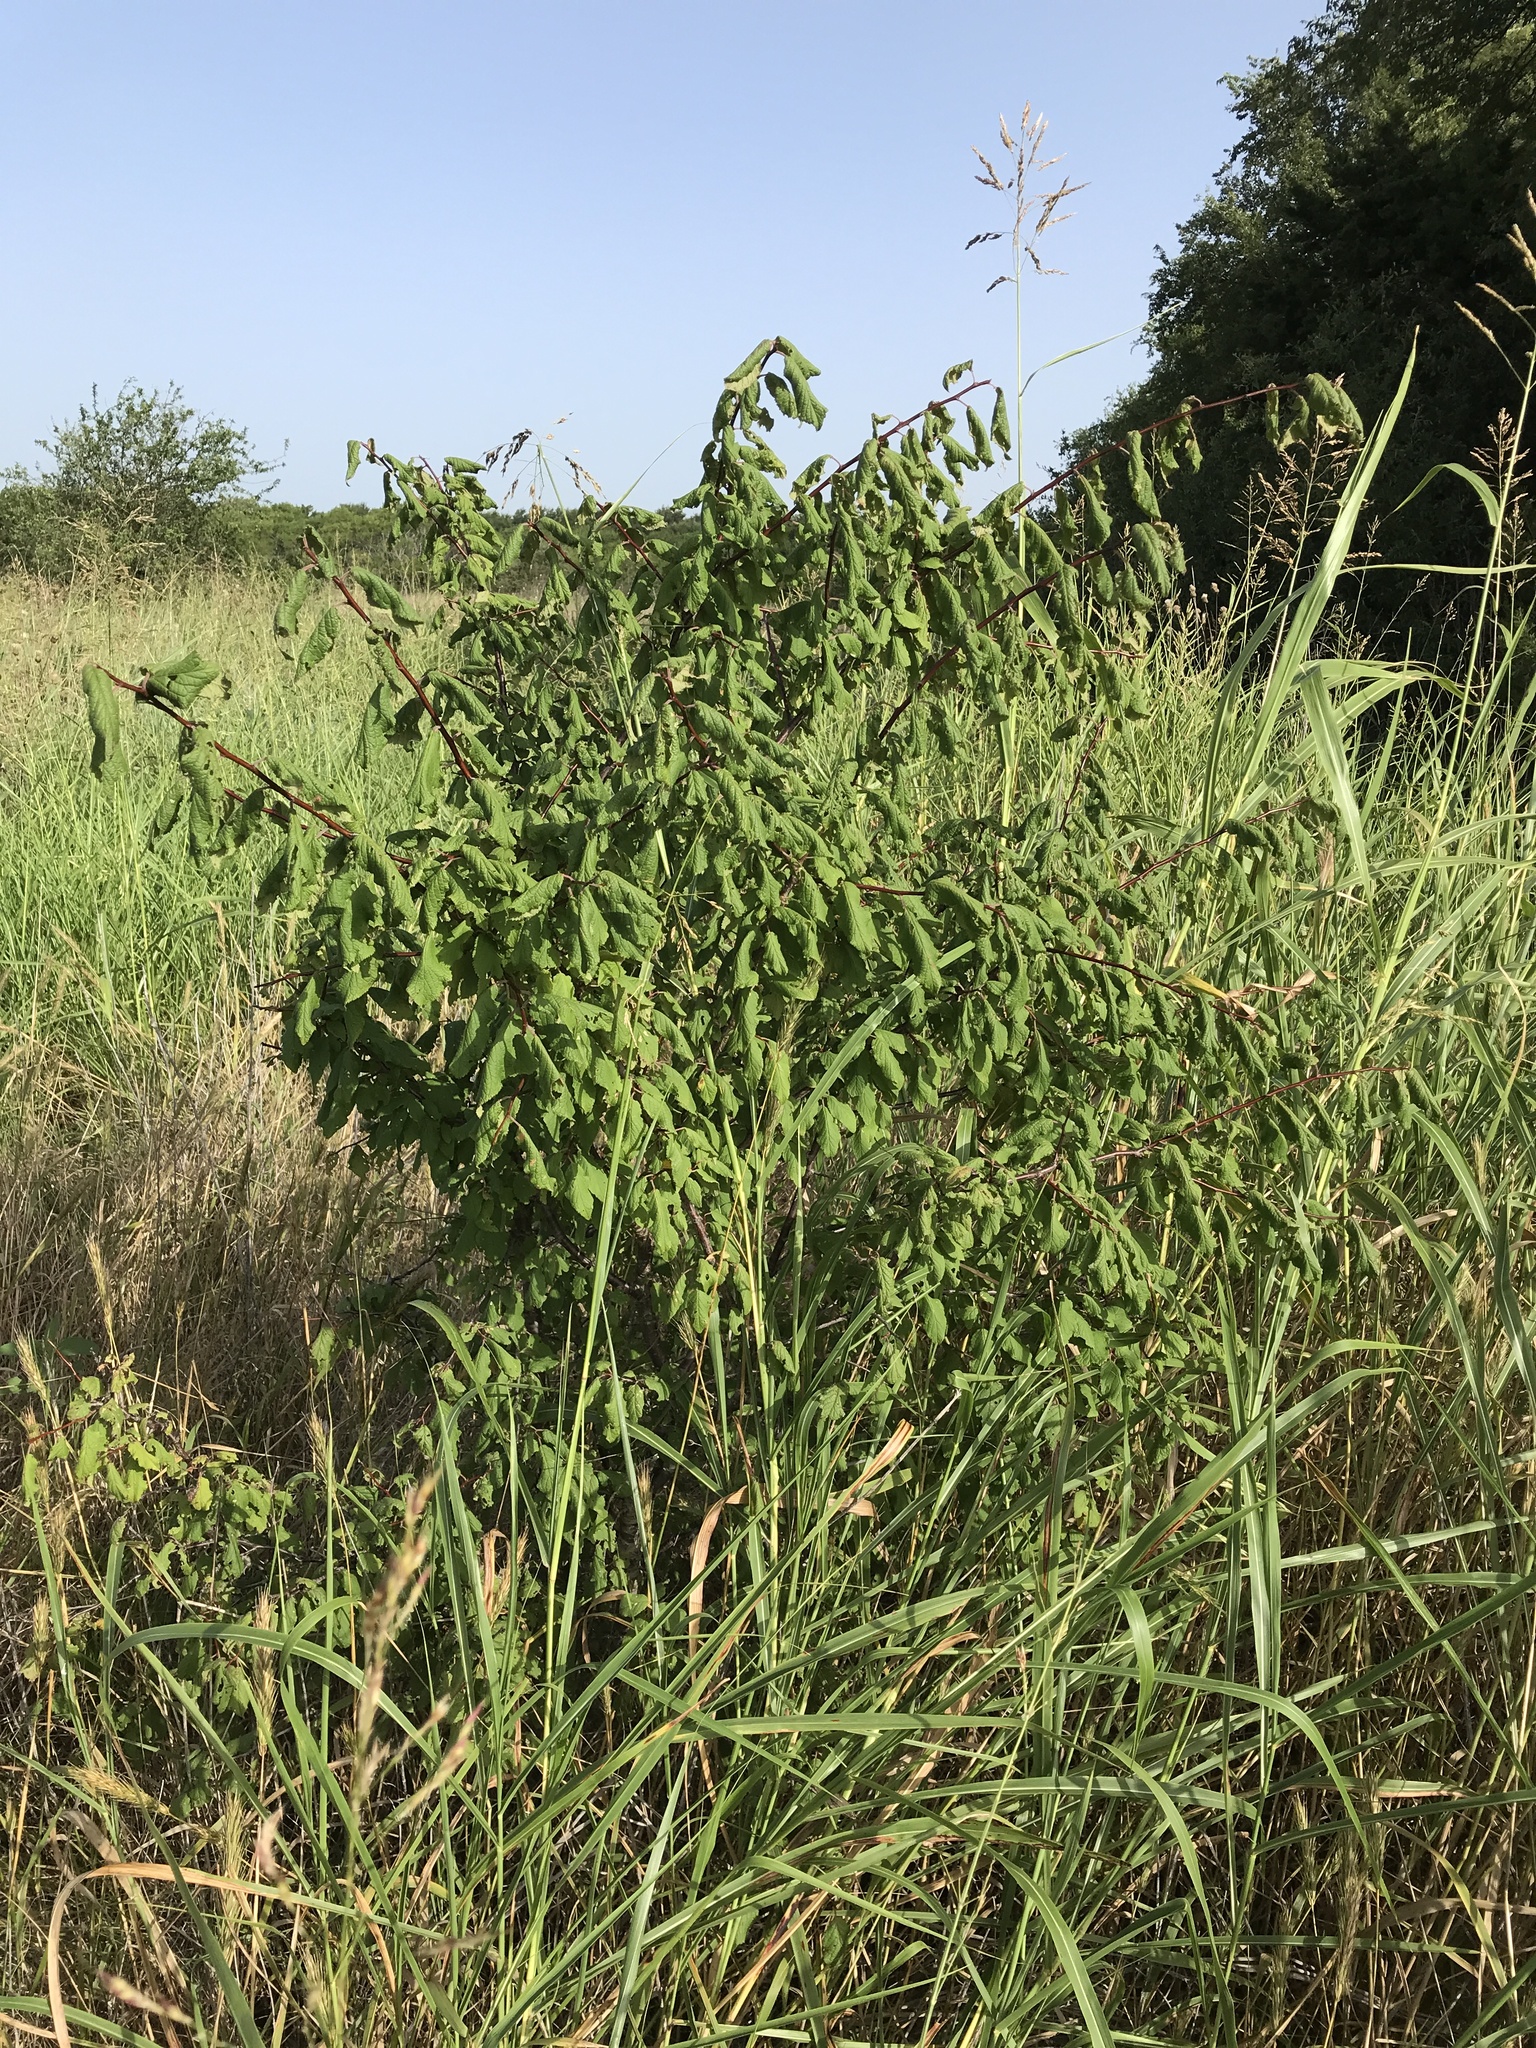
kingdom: Plantae
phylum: Tracheophyta
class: Magnoliopsida
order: Rosales
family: Rosaceae
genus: Prunus
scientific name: Prunus mexicana
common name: Mexican plum
